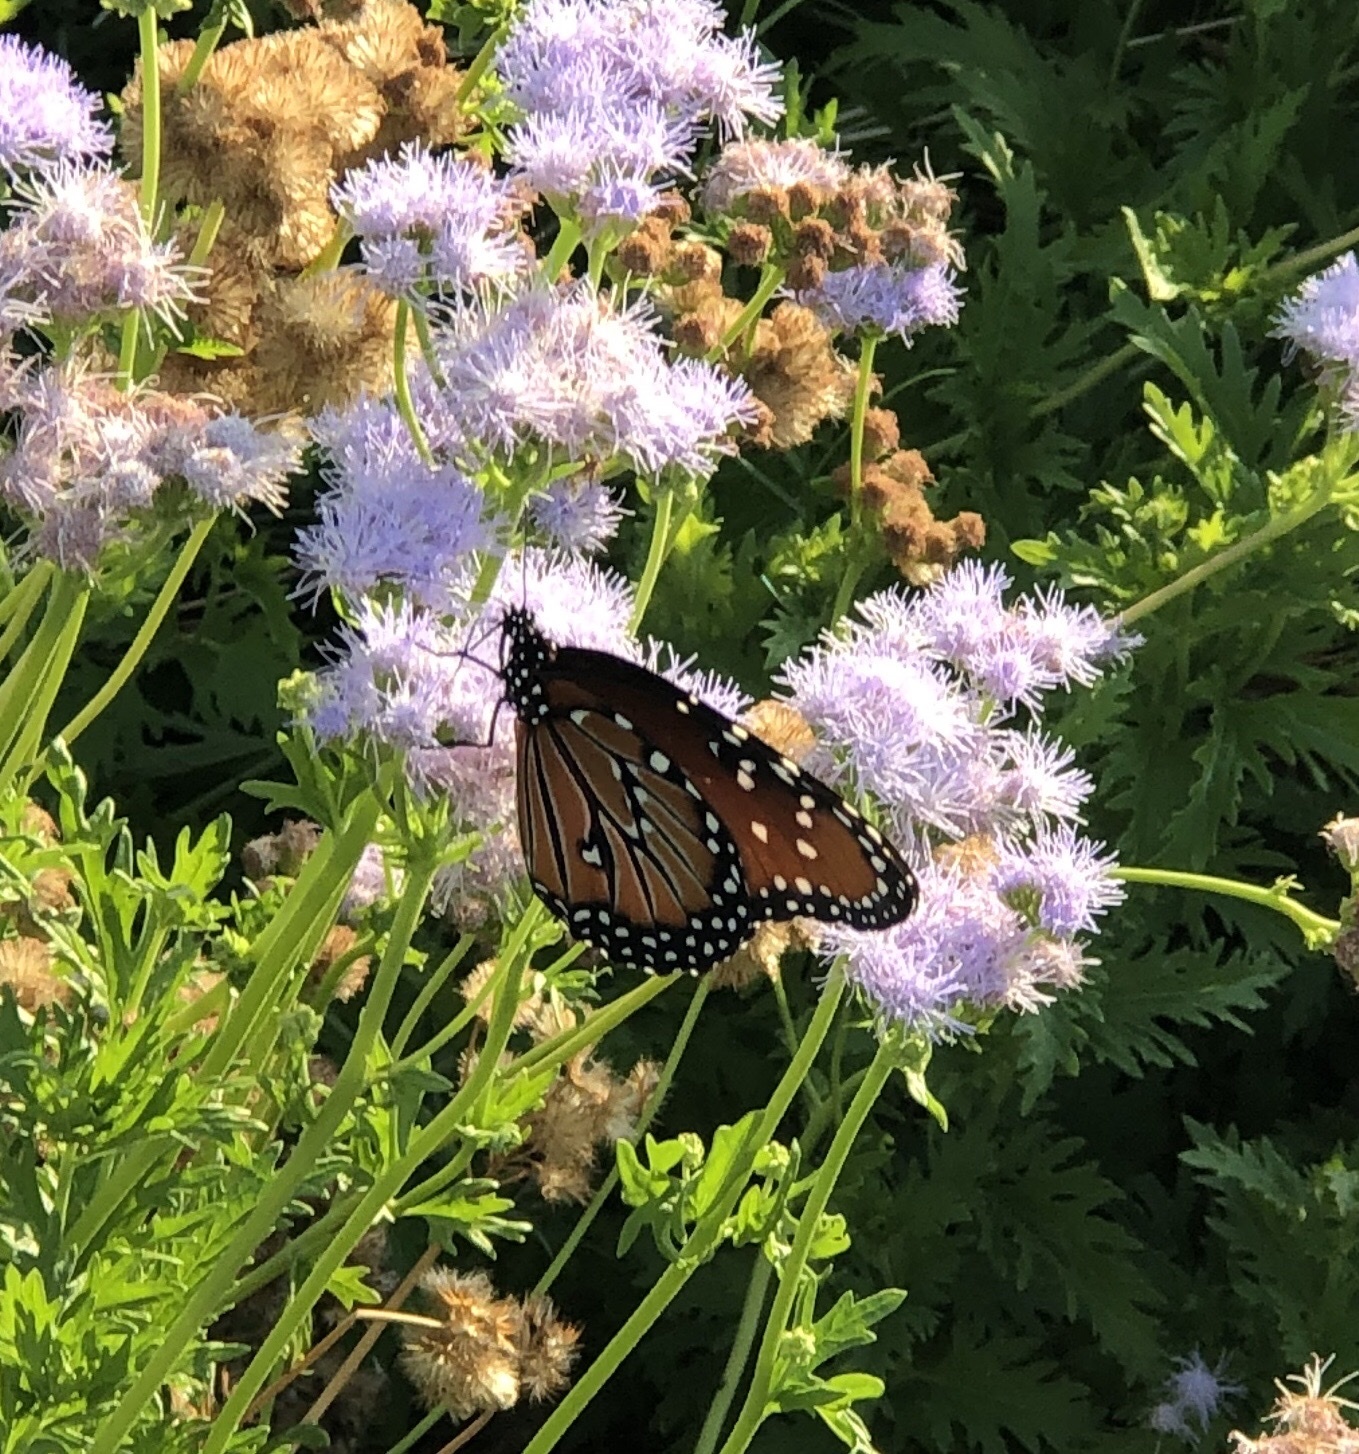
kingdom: Animalia
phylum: Arthropoda
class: Insecta
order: Lepidoptera
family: Nymphalidae
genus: Danaus
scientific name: Danaus gilippus
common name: Queen
